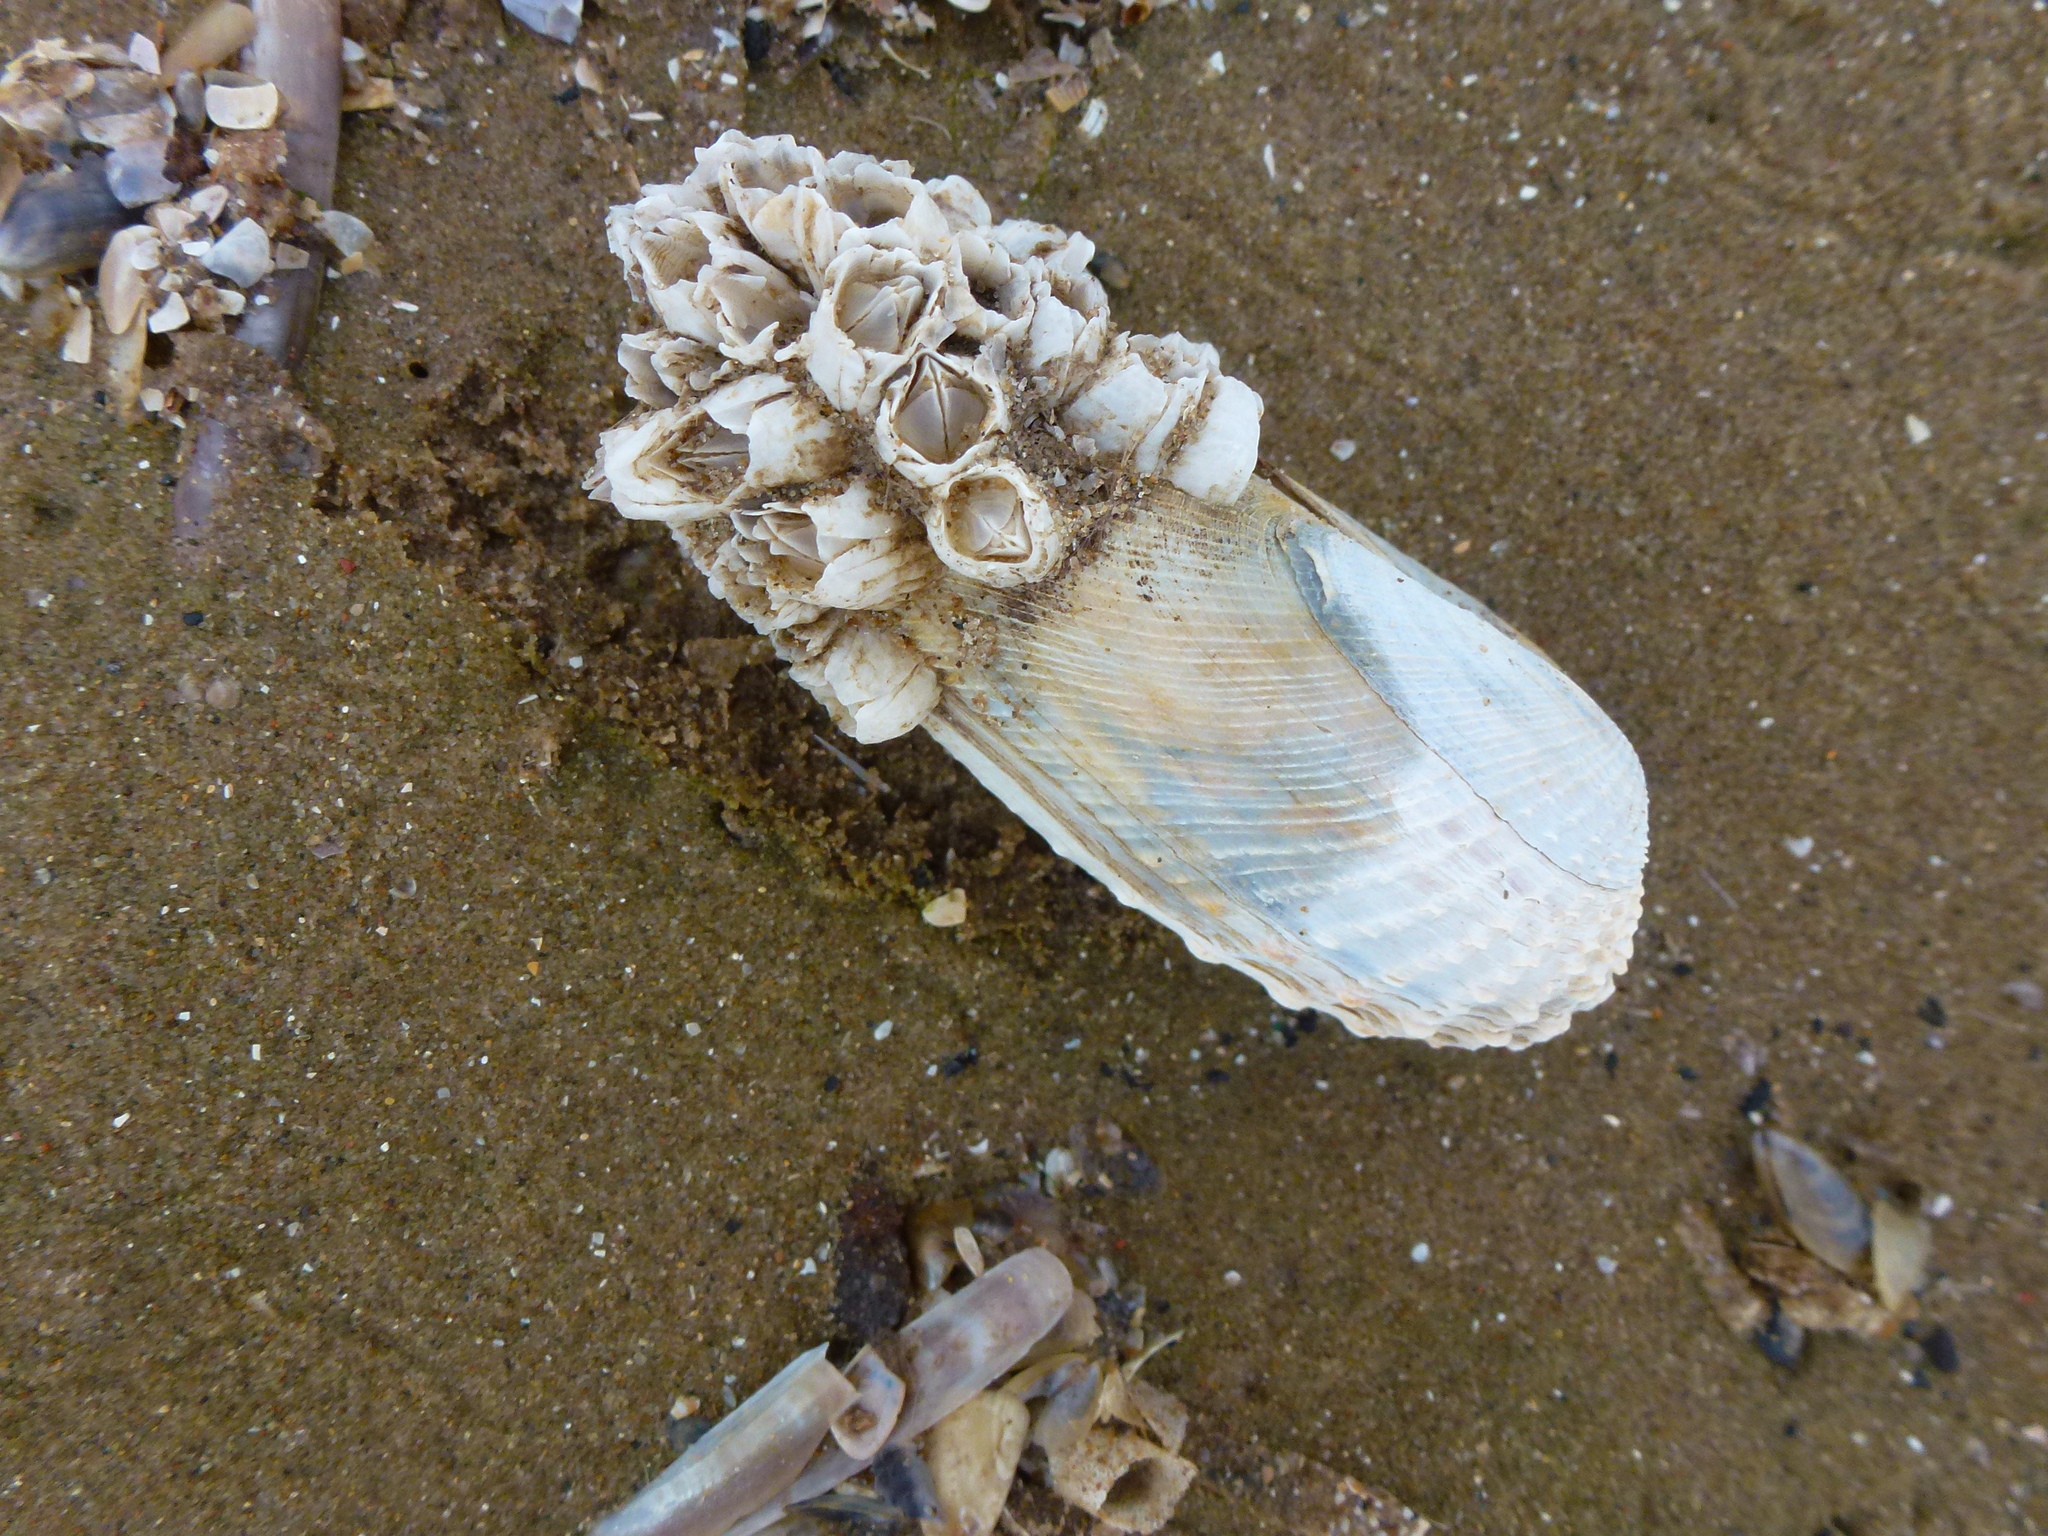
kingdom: Animalia
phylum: Mollusca
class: Bivalvia
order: Venerida
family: Veneridae
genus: Petricolaria
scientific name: Petricolaria pholadiformis
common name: American piddock
